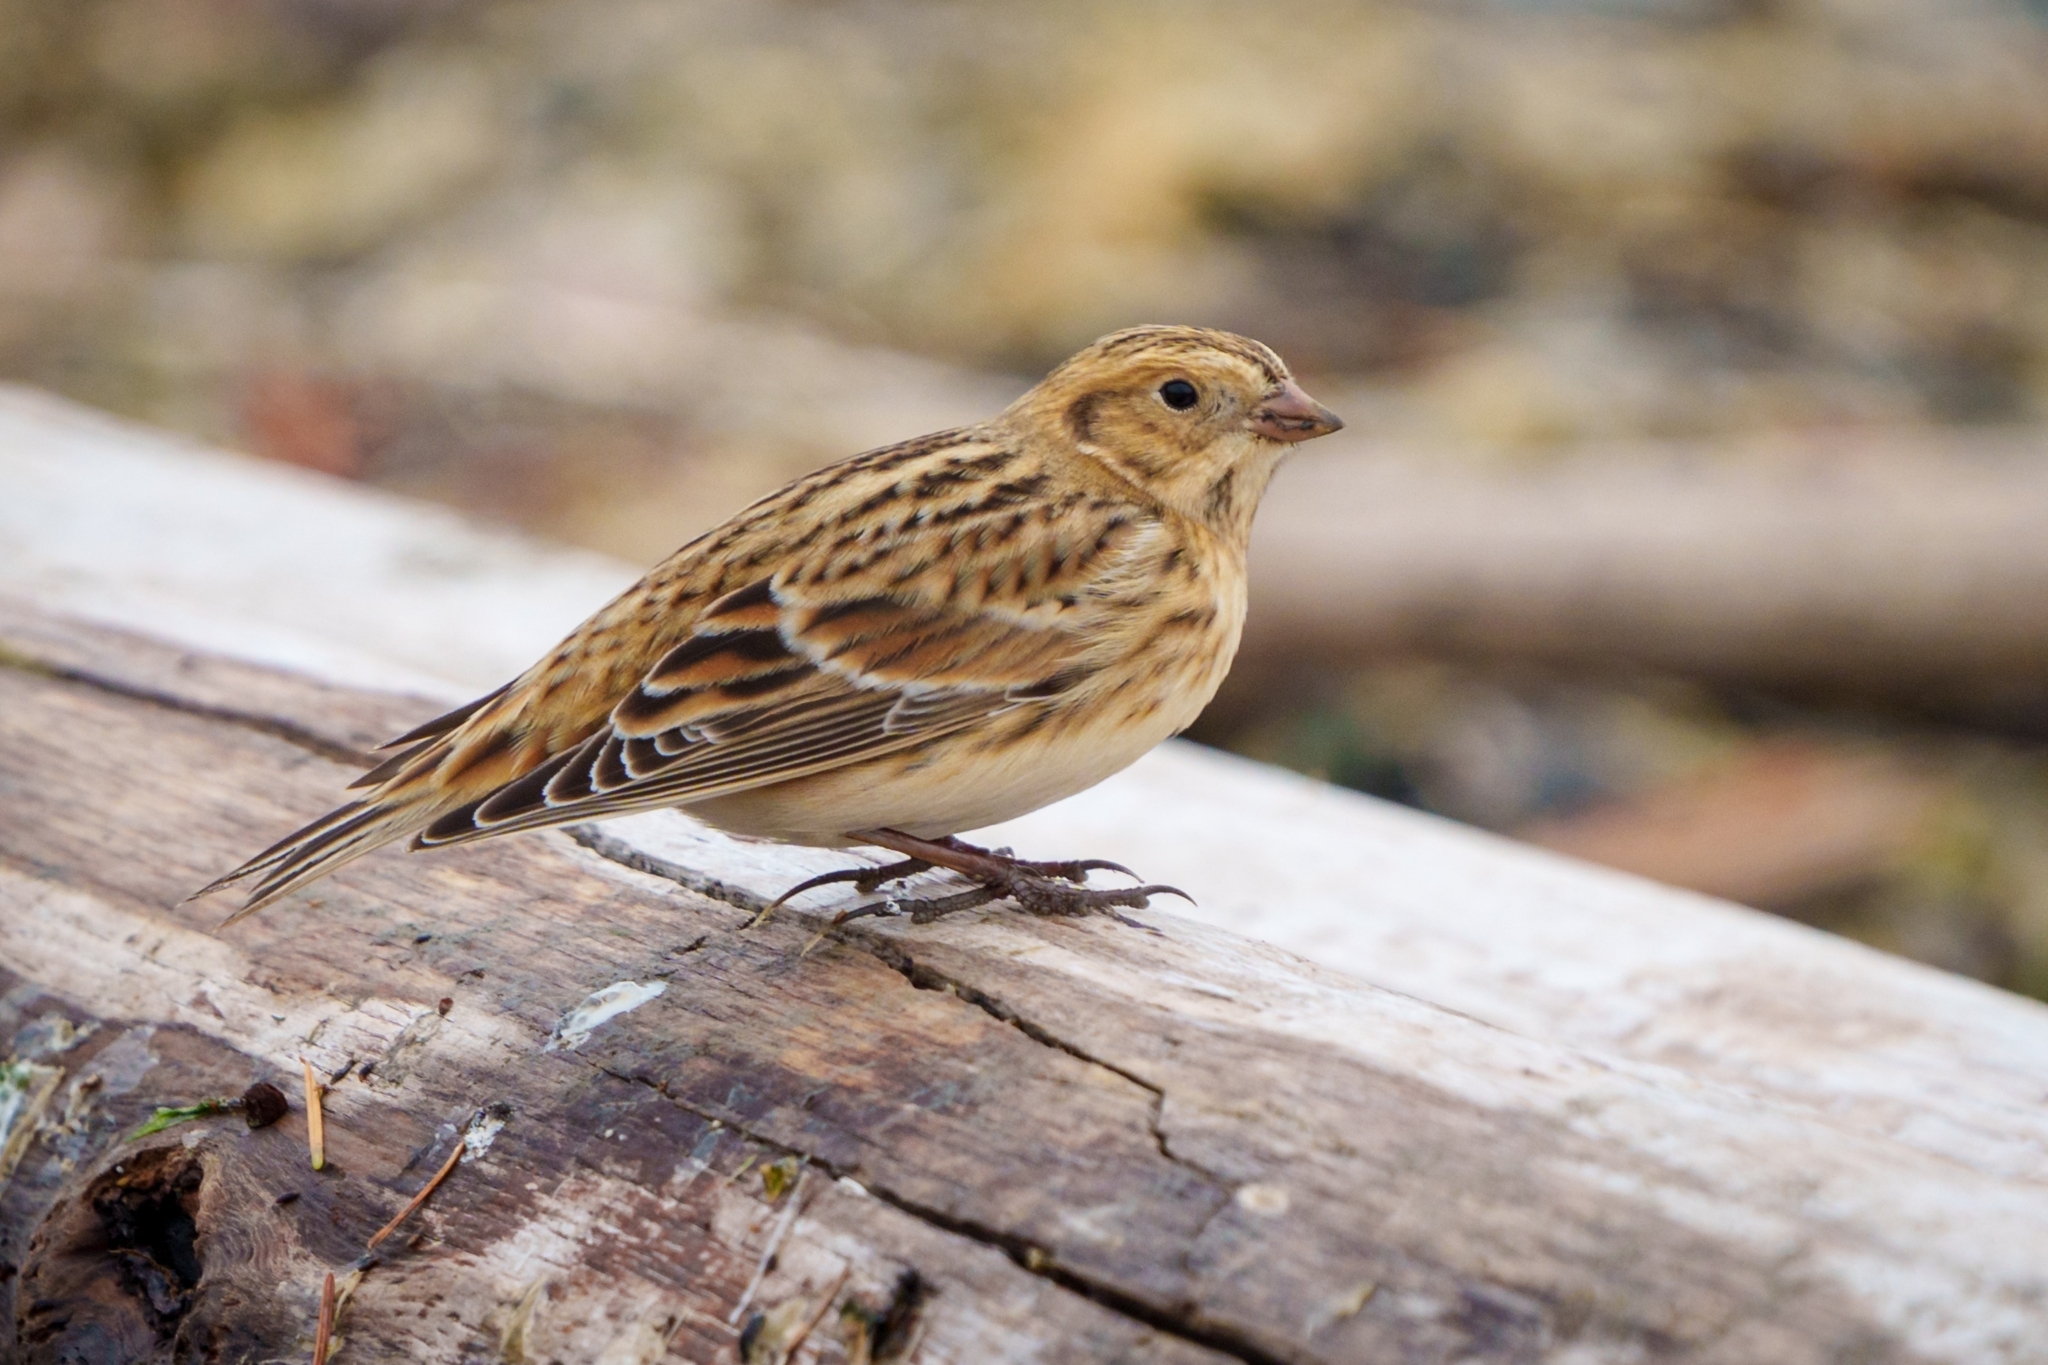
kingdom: Animalia
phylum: Chordata
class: Aves
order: Passeriformes
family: Calcariidae
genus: Calcarius
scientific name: Calcarius lapponicus
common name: Lapland longspur
